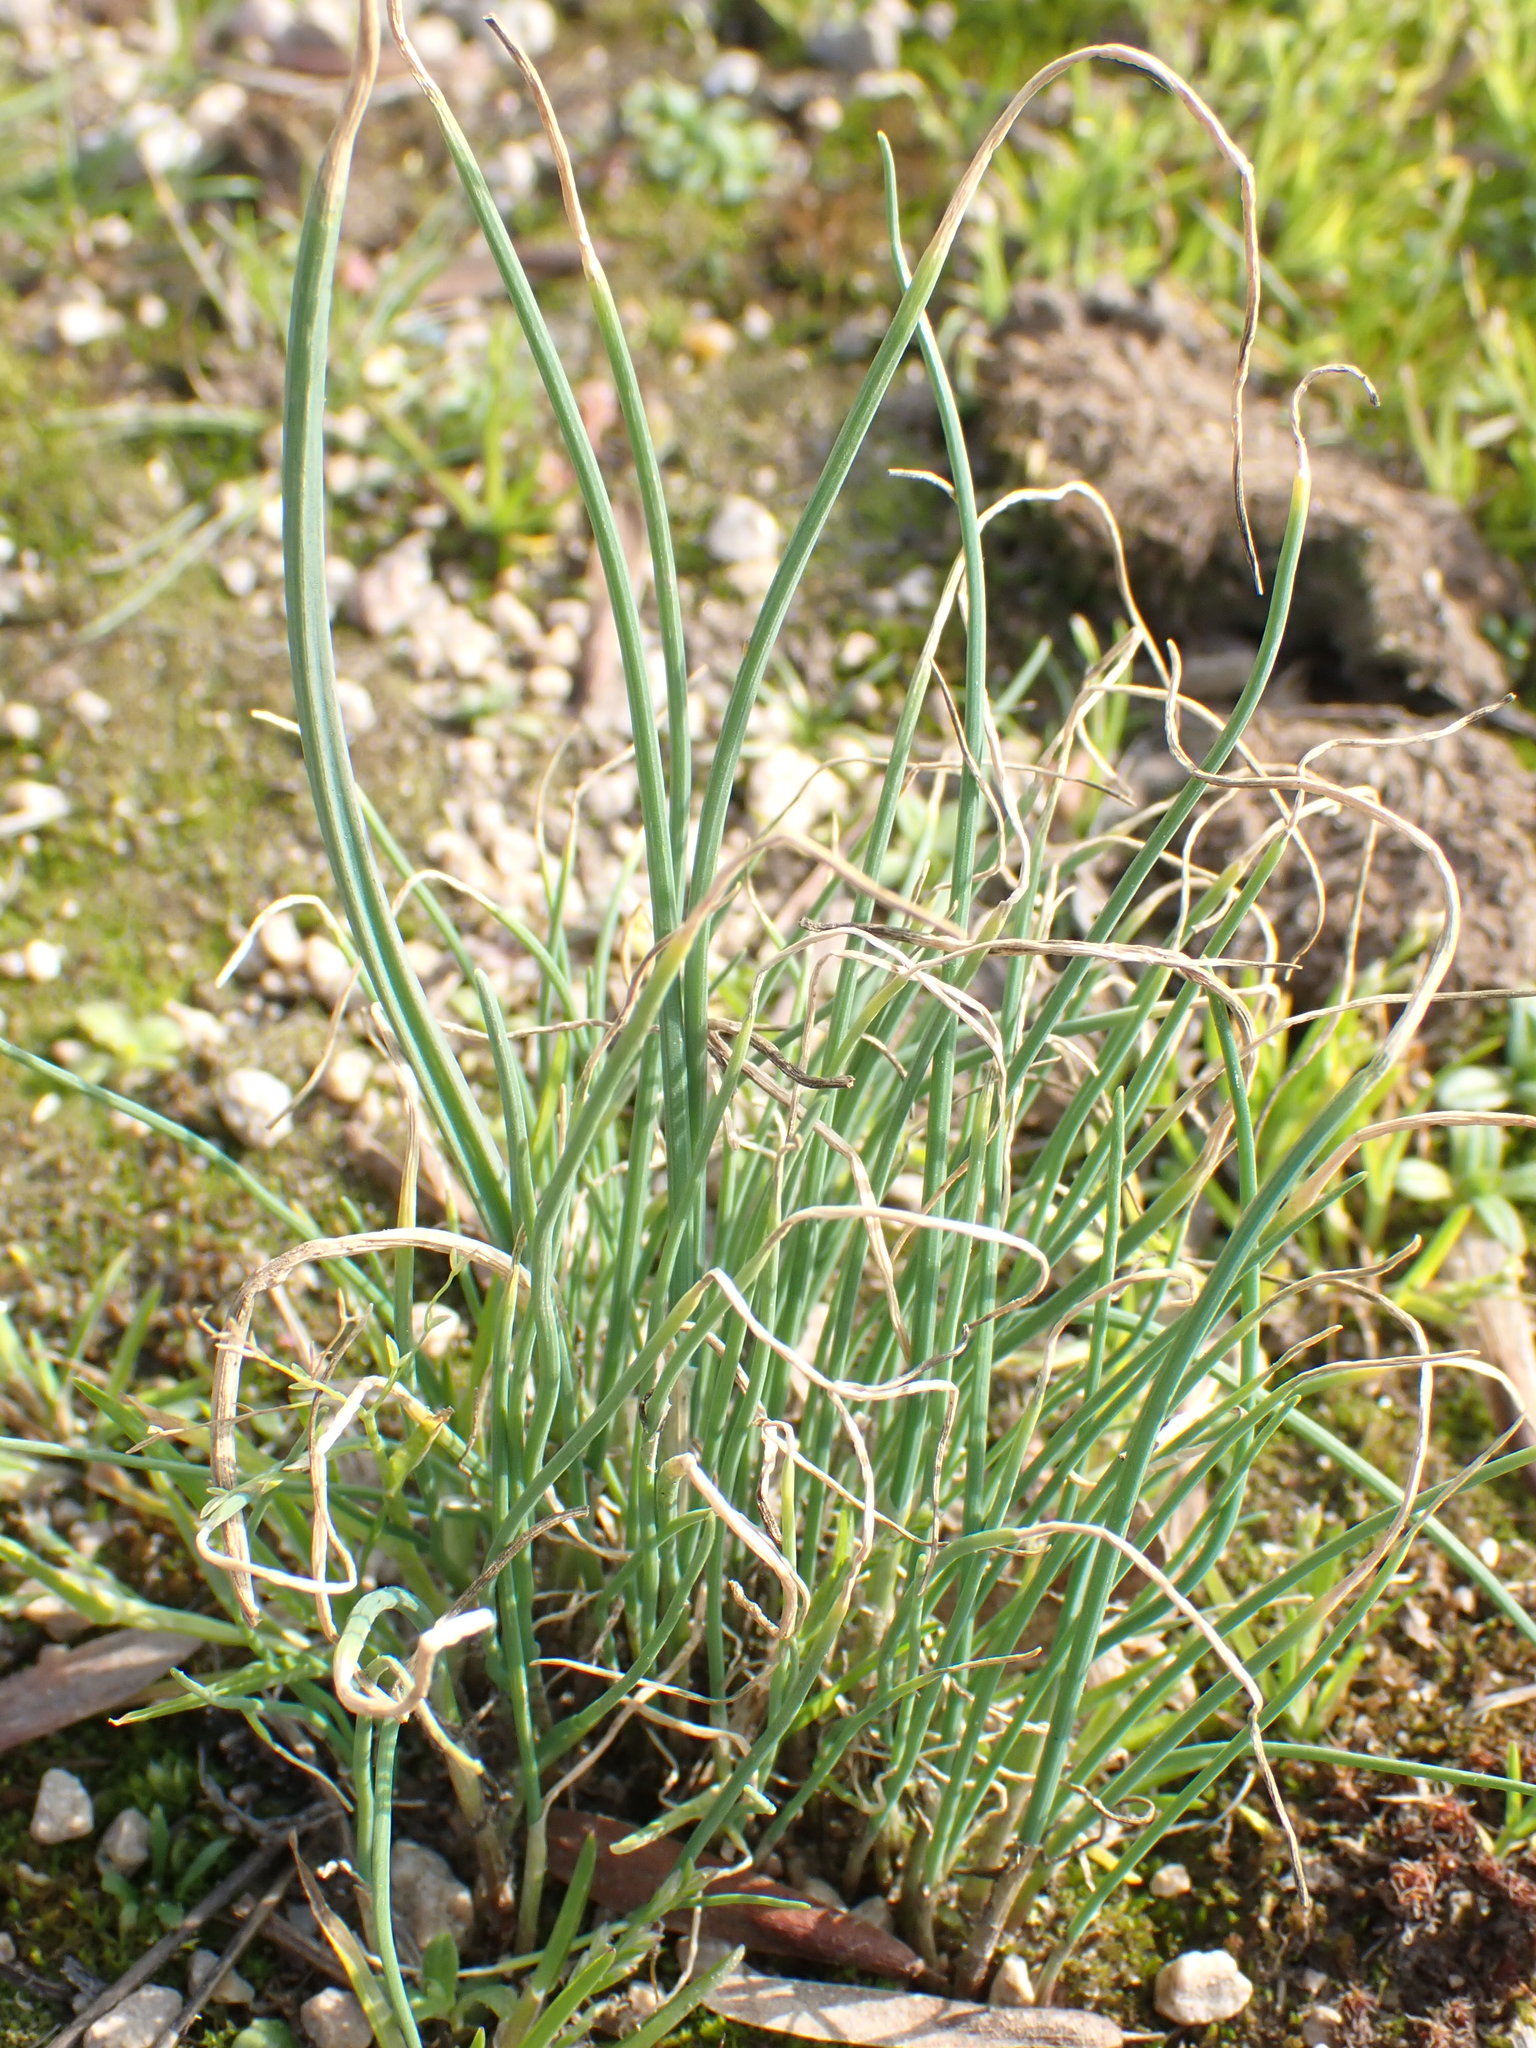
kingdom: Plantae
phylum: Tracheophyta
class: Liliopsida
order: Asparagales
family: Amaryllidaceae
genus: Allium
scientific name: Allium vineale
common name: Crow garlic
